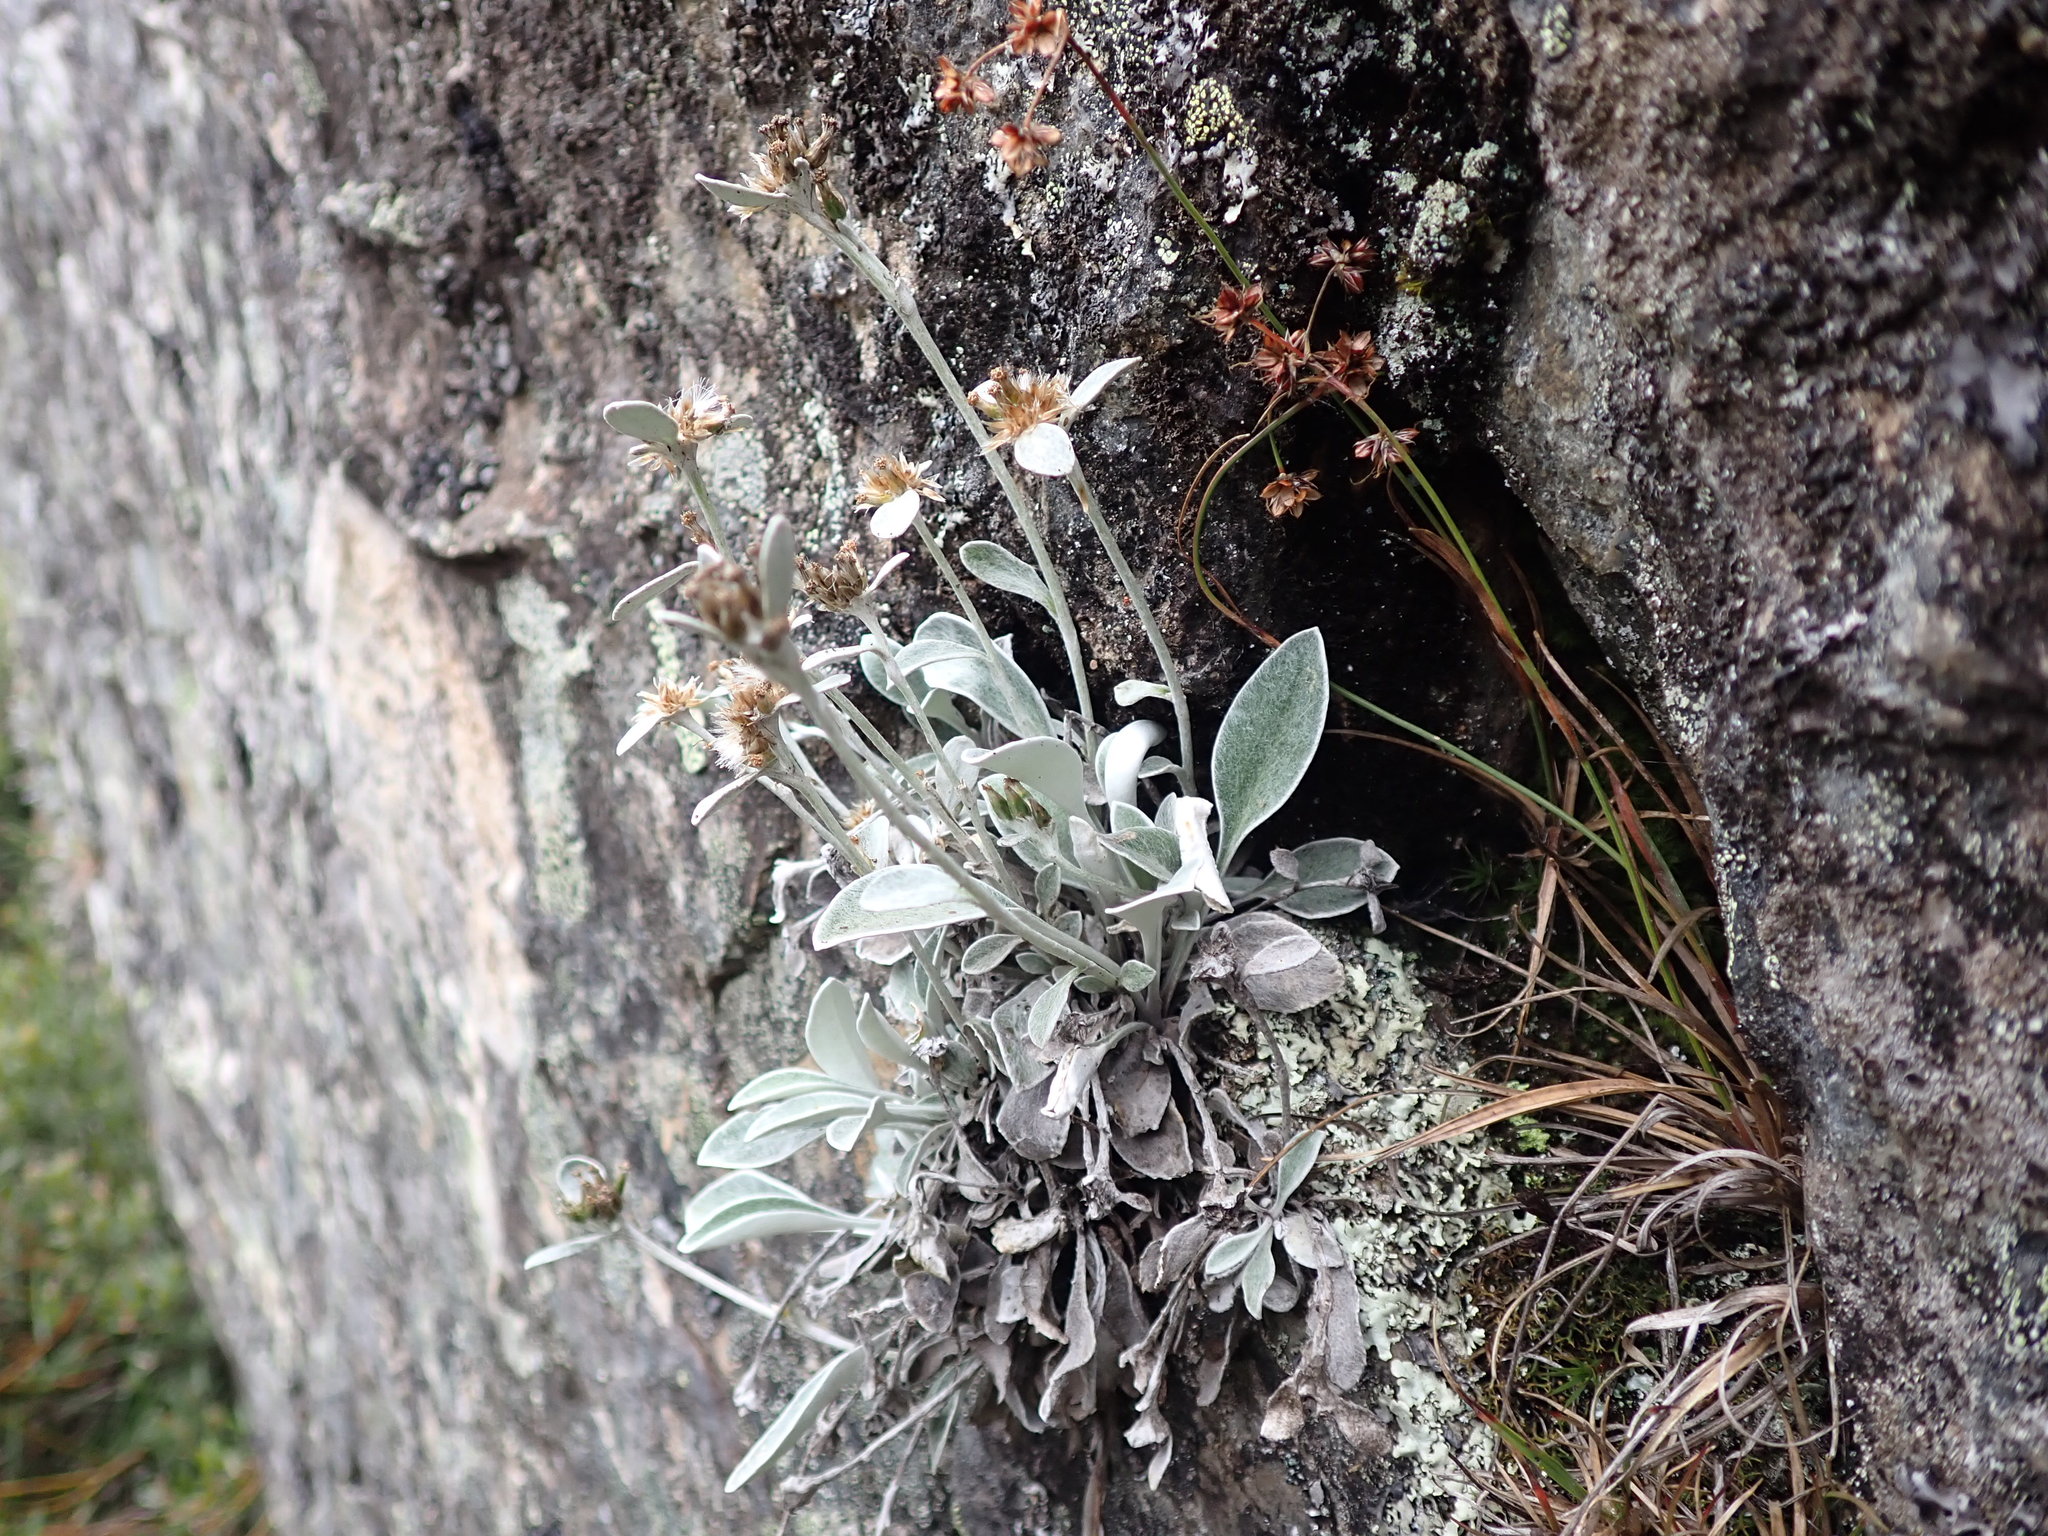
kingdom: Plantae
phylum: Tracheophyta
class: Magnoliopsida
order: Asterales
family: Asteraceae
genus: Euchiton
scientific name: Euchiton umbricola
